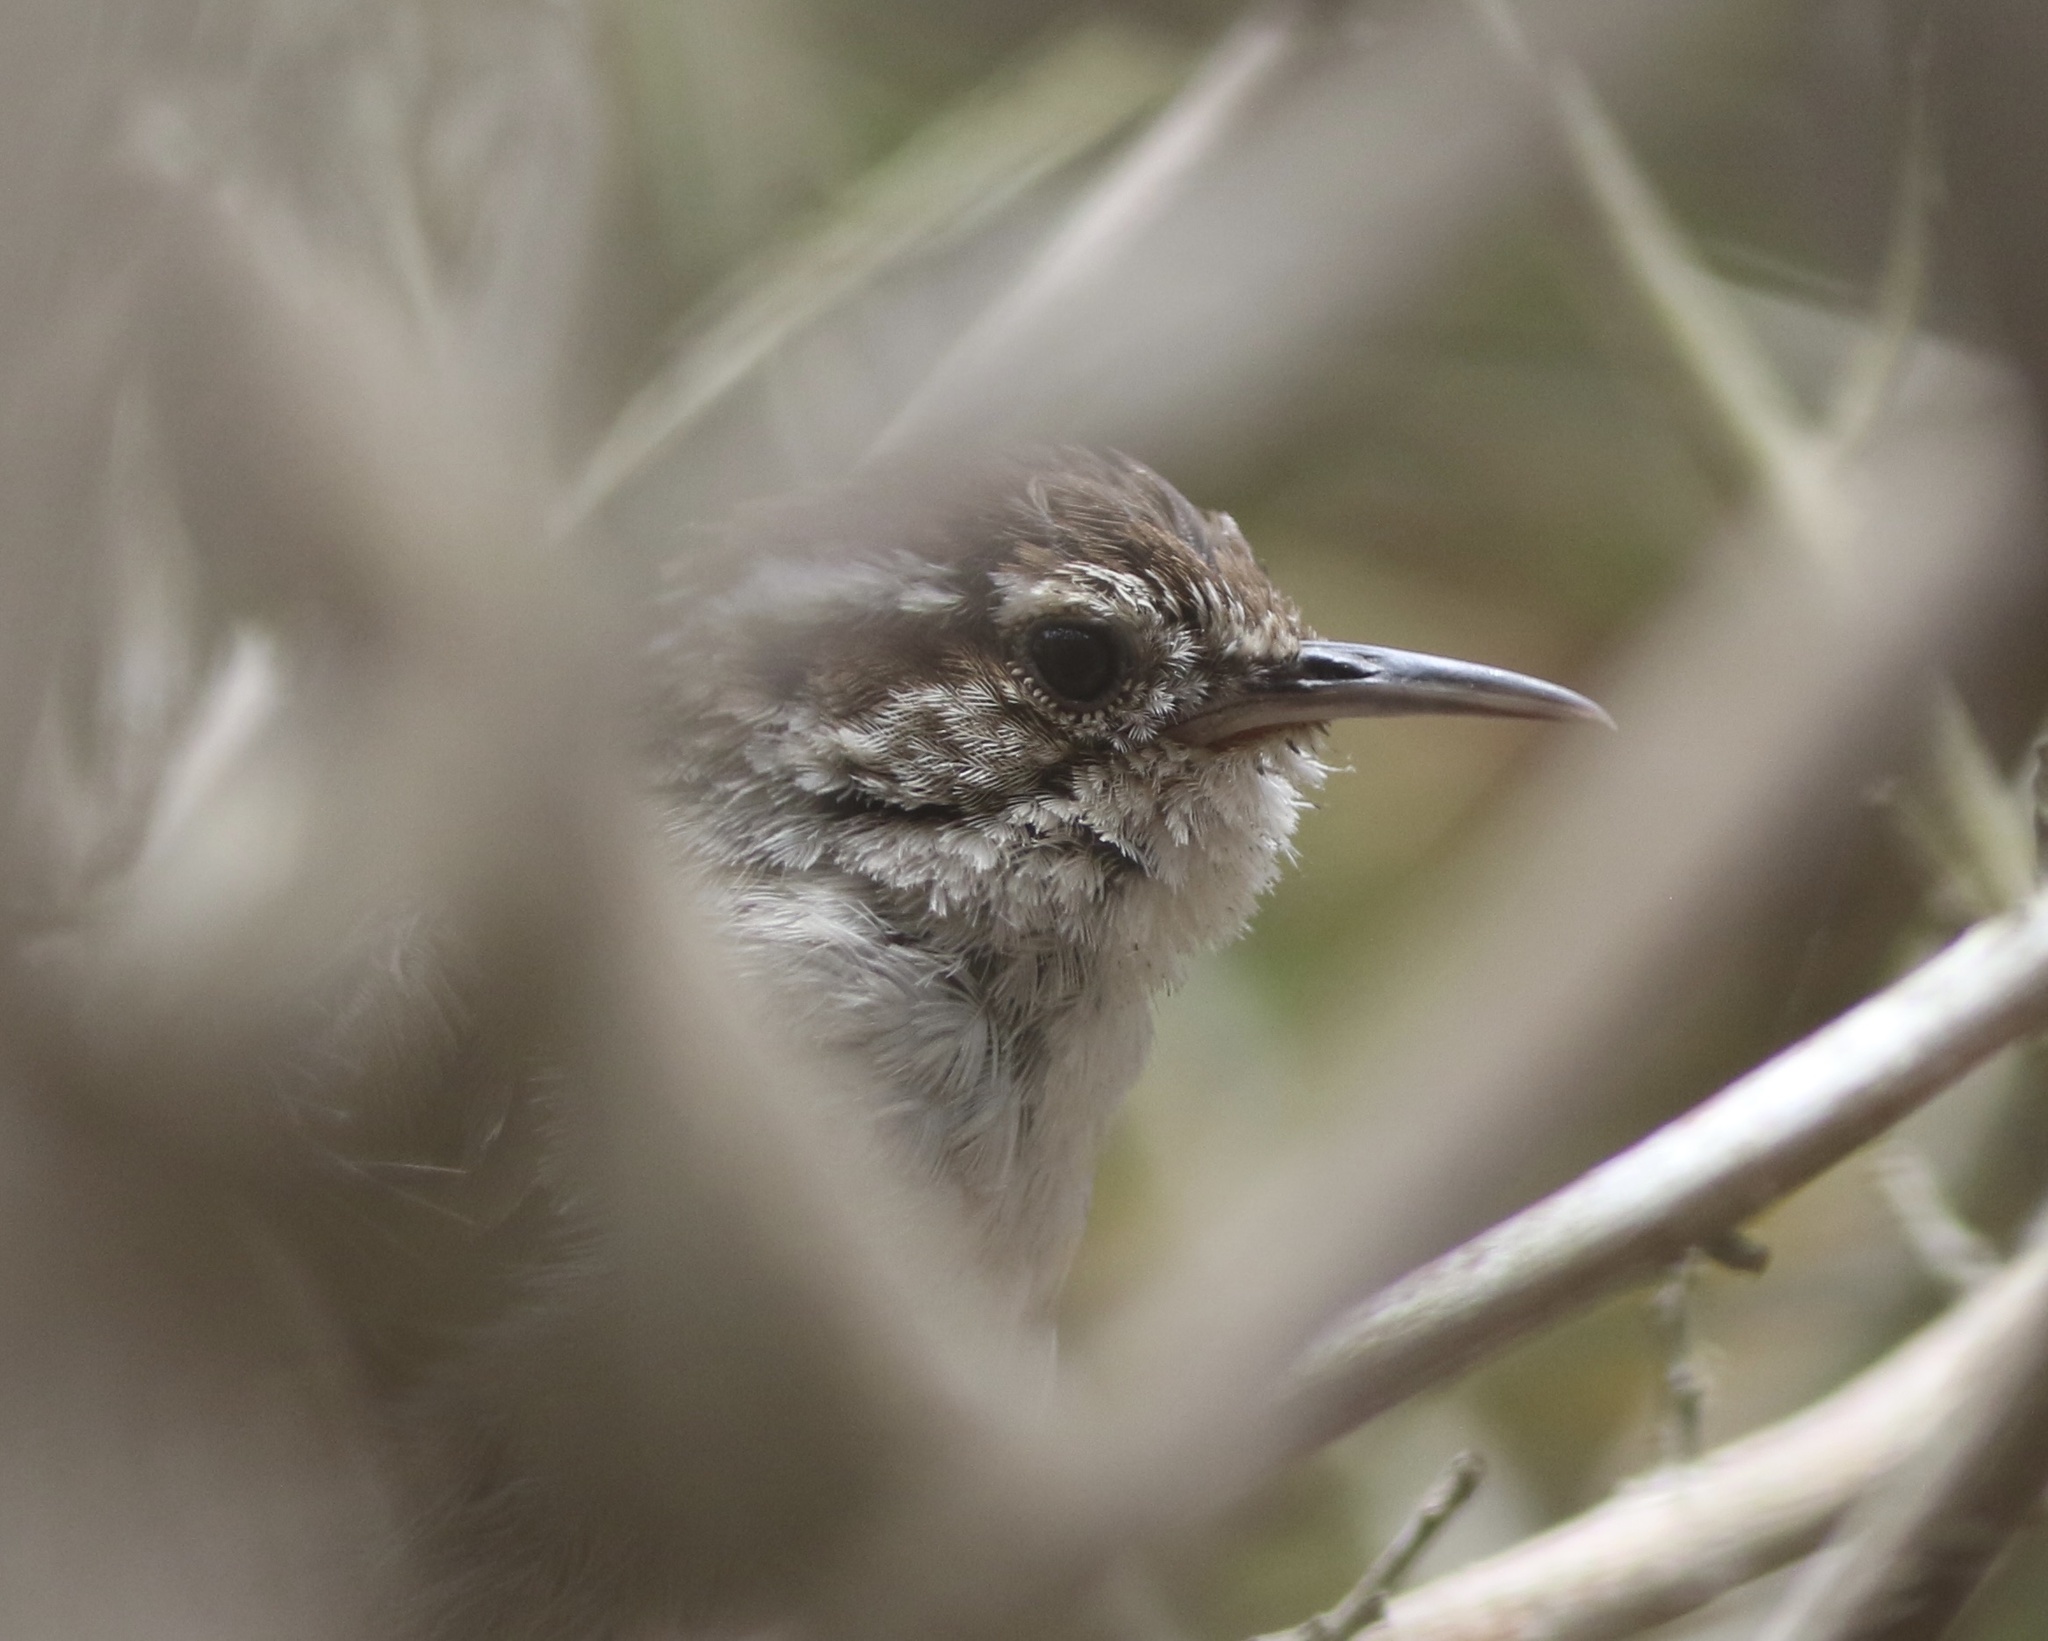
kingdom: Animalia
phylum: Chordata
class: Aves
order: Passeriformes
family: Troglodytidae
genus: Thryomanes
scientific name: Thryomanes bewickii
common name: Bewick's wren
